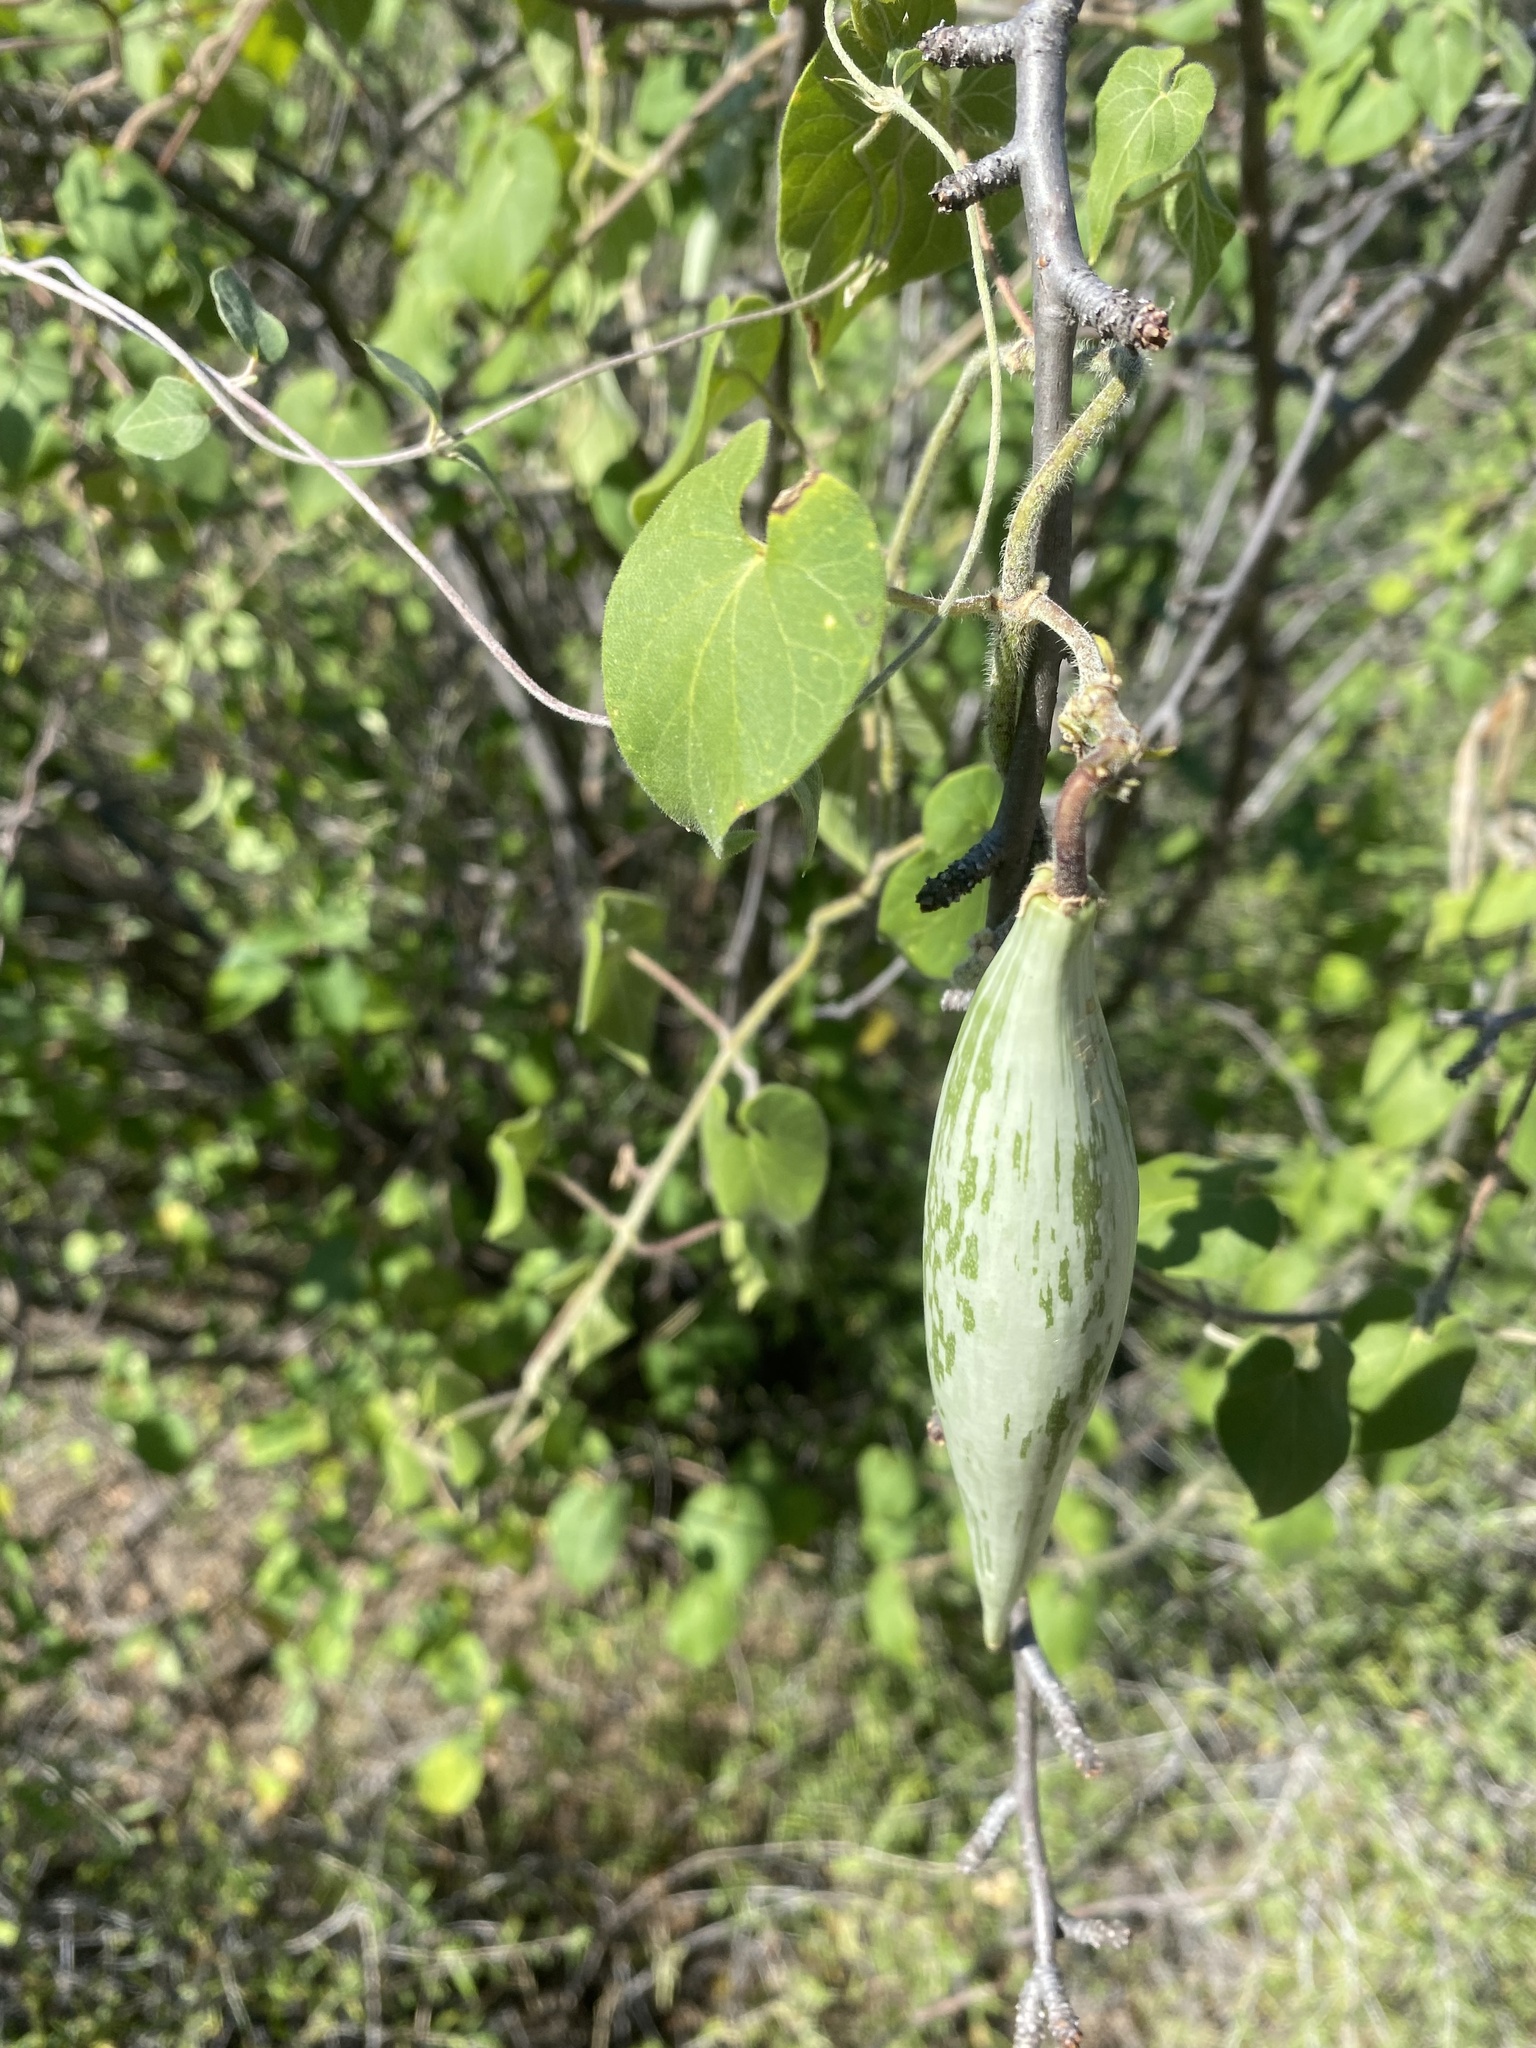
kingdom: Plantae
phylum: Tracheophyta
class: Magnoliopsida
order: Gentianales
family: Apocynaceae
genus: Polystemma
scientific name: Polystemma cordifolium
